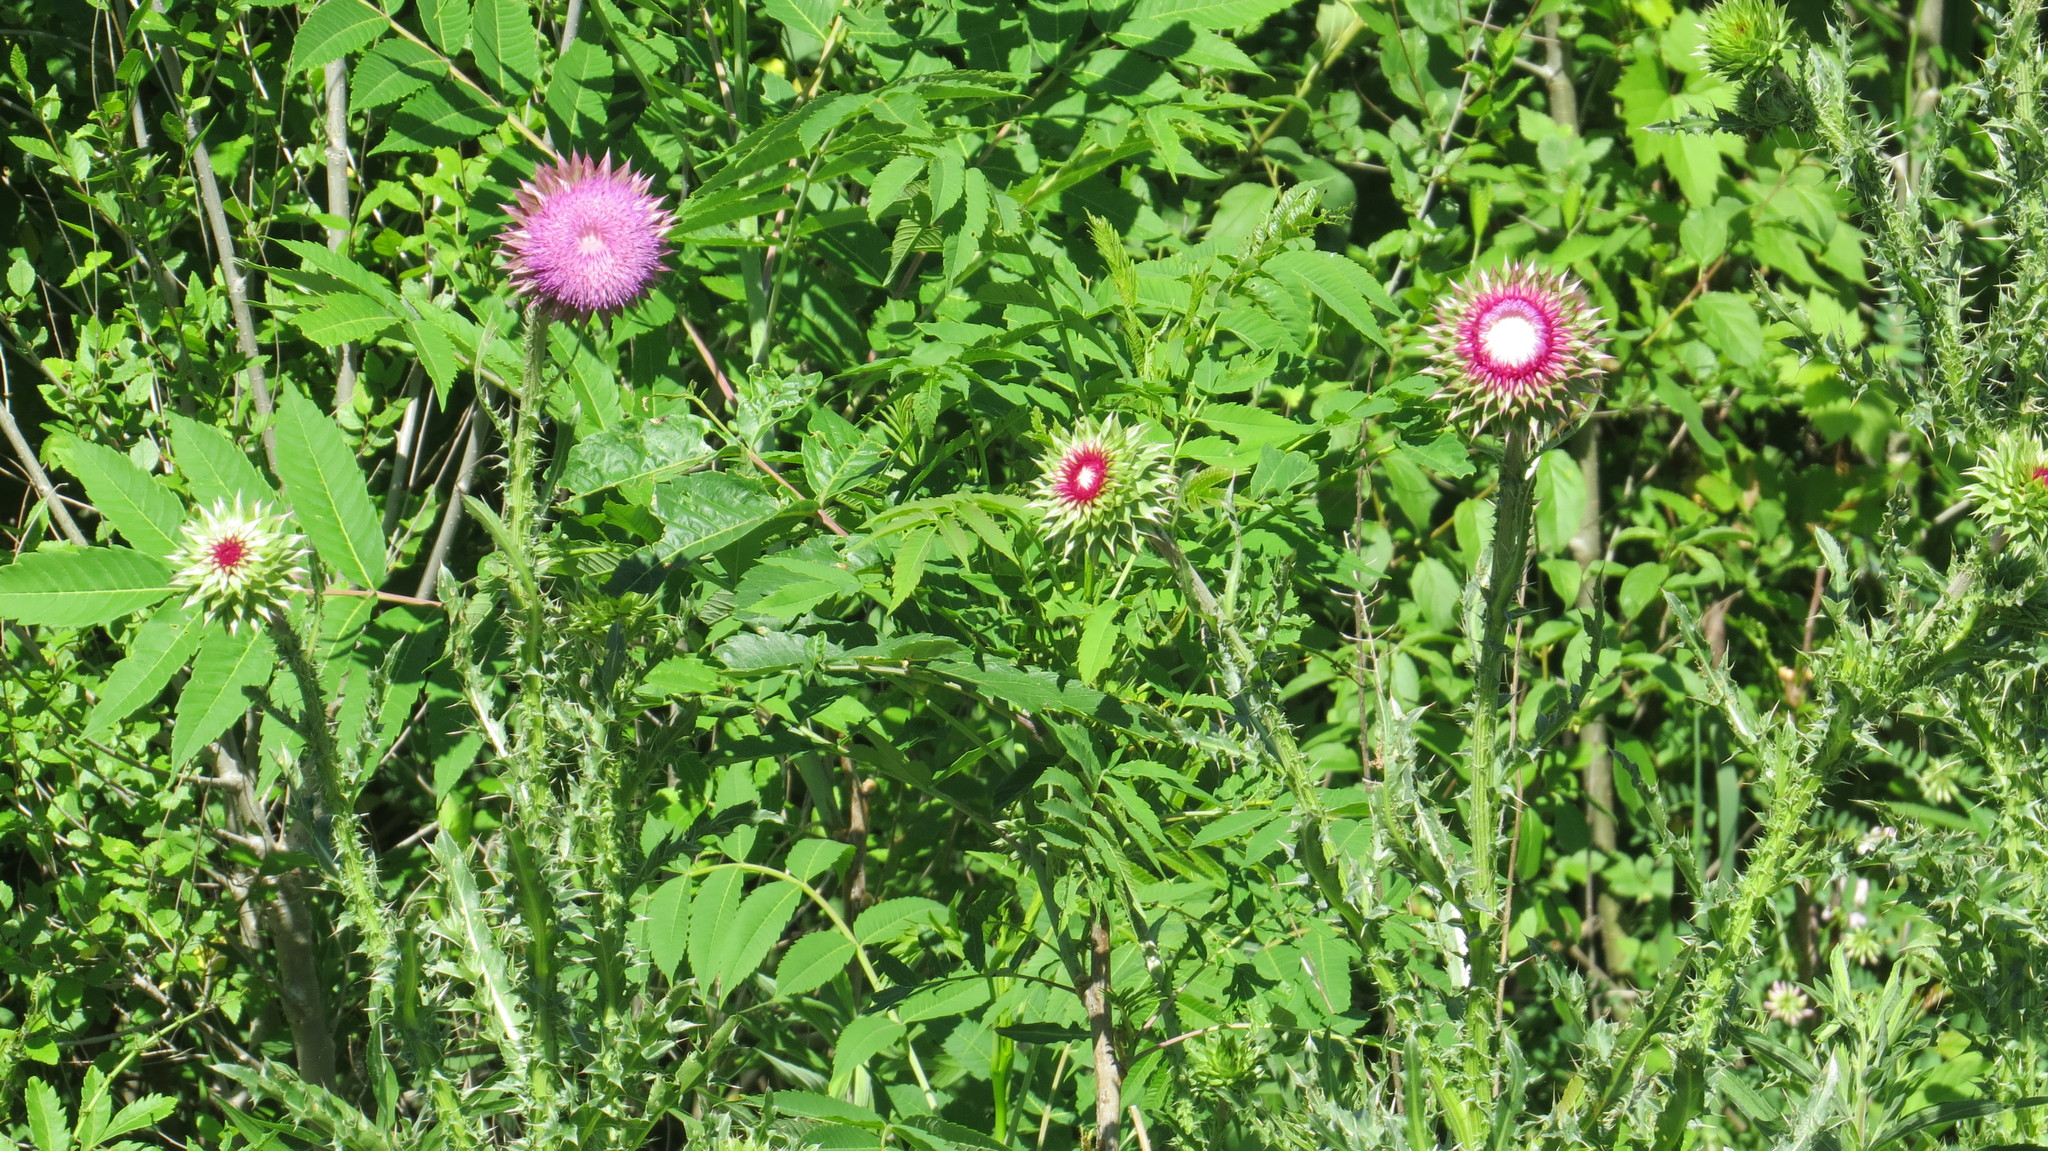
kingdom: Plantae
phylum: Tracheophyta
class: Magnoliopsida
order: Asterales
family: Asteraceae
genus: Carduus
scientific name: Carduus nutans
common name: Musk thistle
